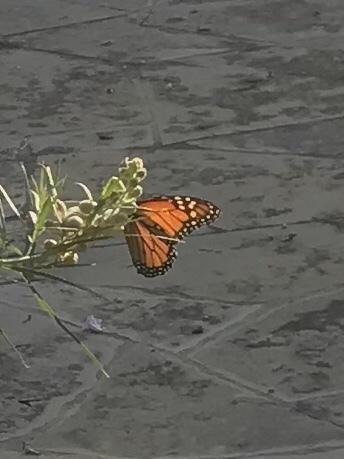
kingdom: Animalia
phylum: Arthropoda
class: Insecta
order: Lepidoptera
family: Nymphalidae
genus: Danaus
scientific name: Danaus plexippus
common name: Monarch
